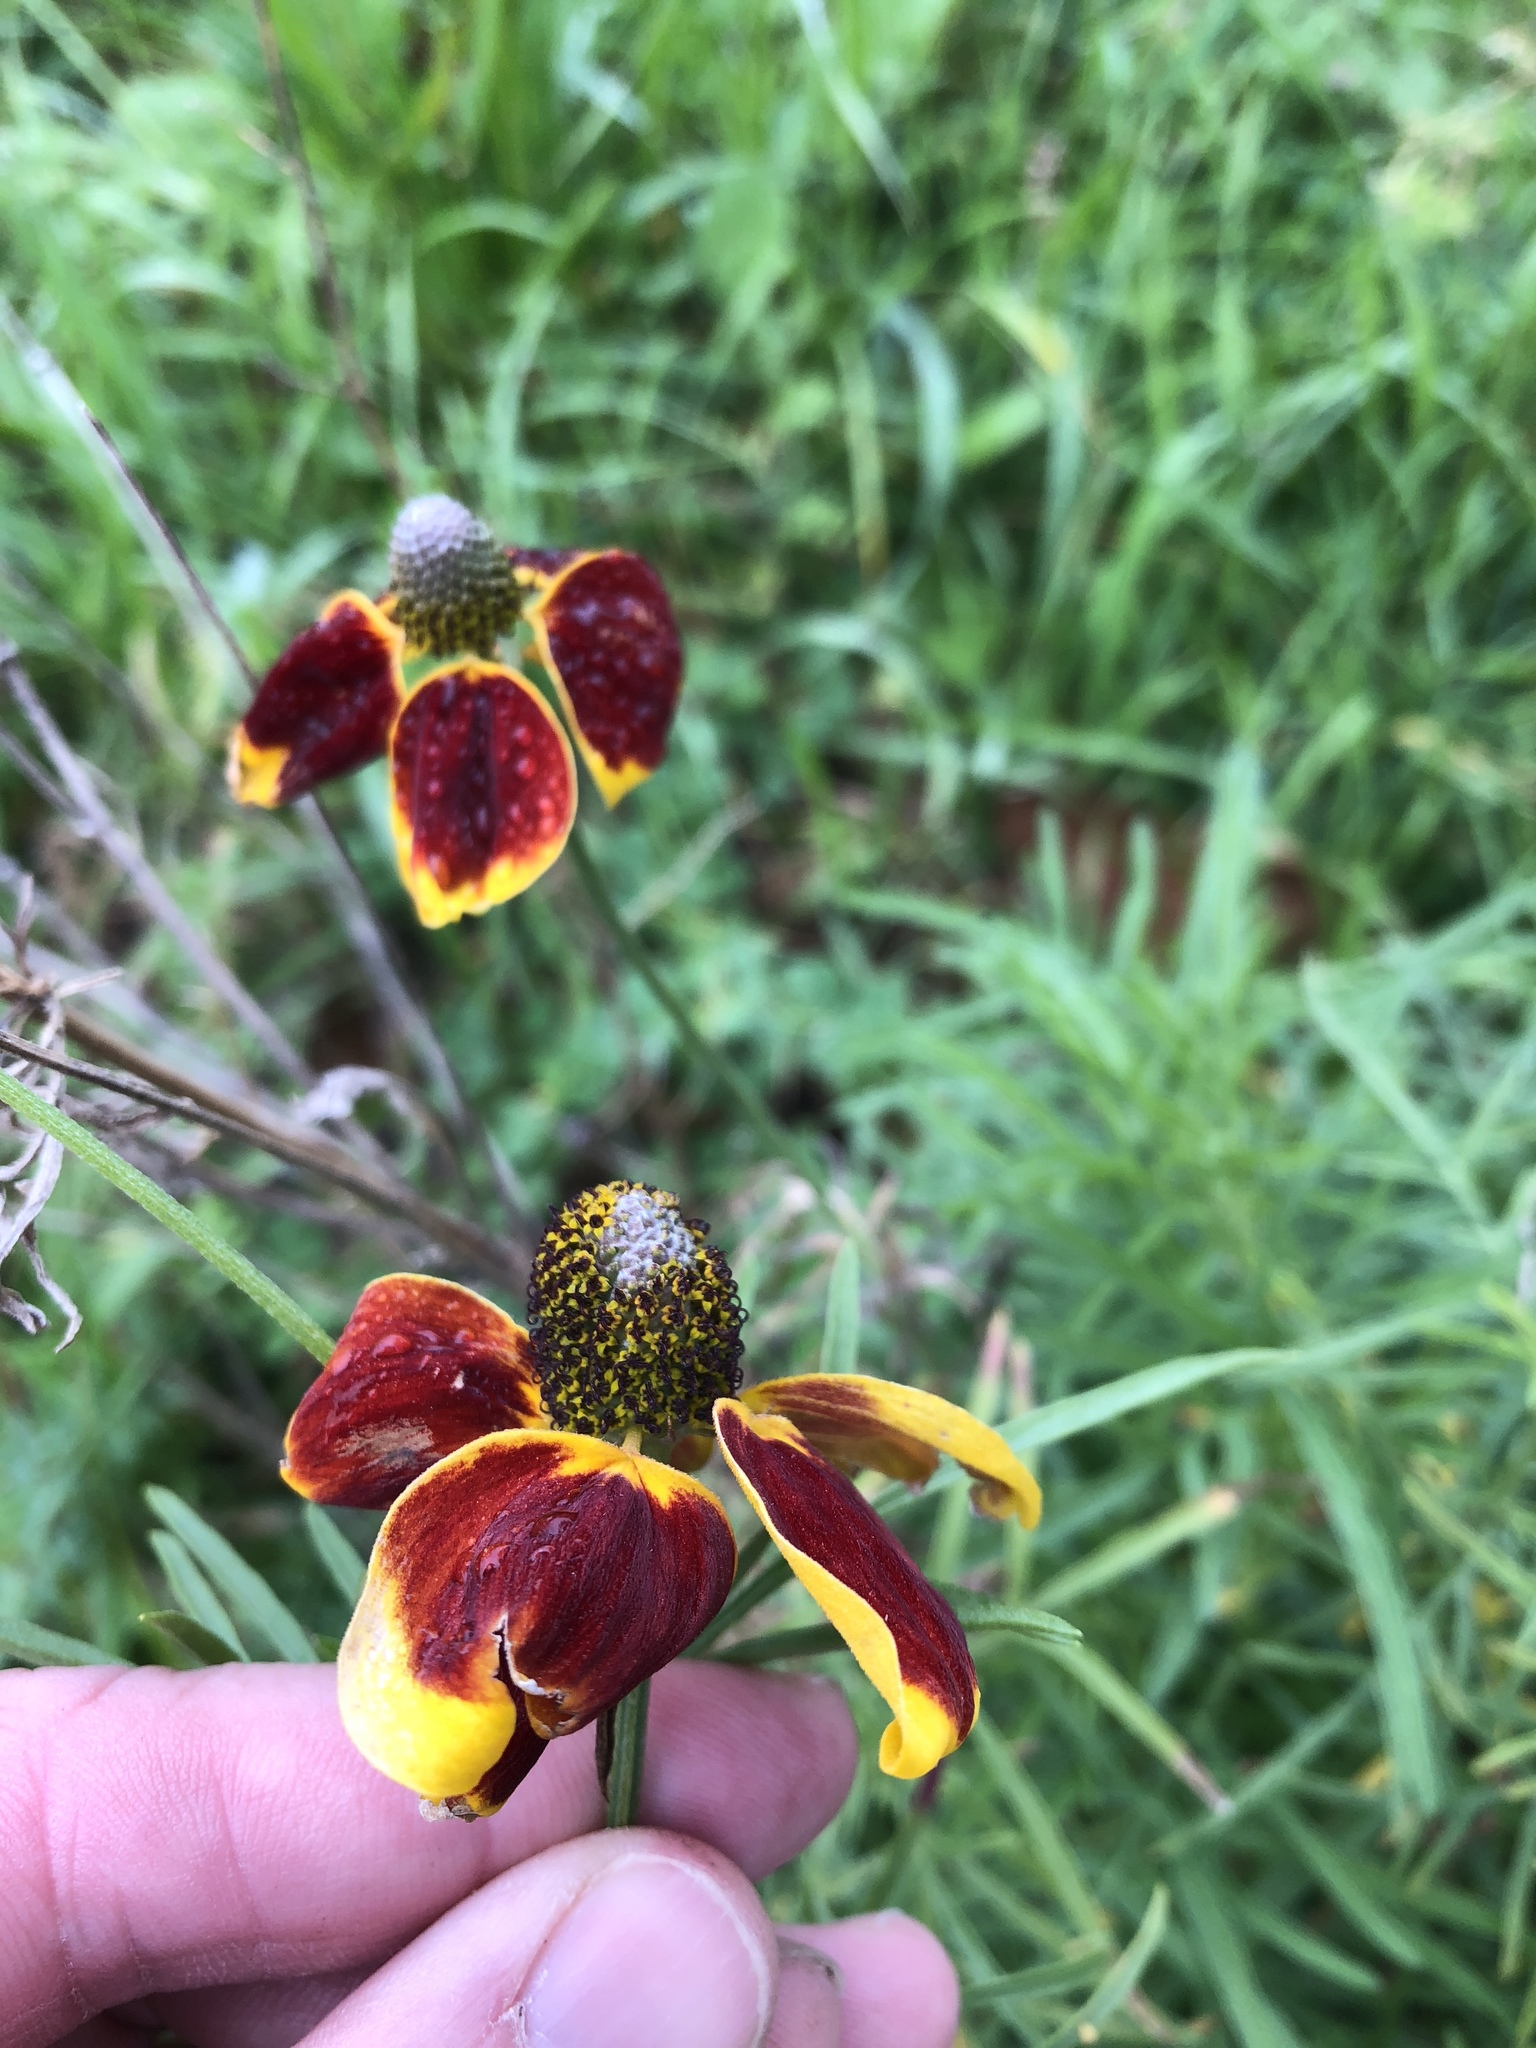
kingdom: Plantae
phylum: Tracheophyta
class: Magnoliopsida
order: Asterales
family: Asteraceae
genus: Ratibida
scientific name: Ratibida columnifera
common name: Prairie coneflower
